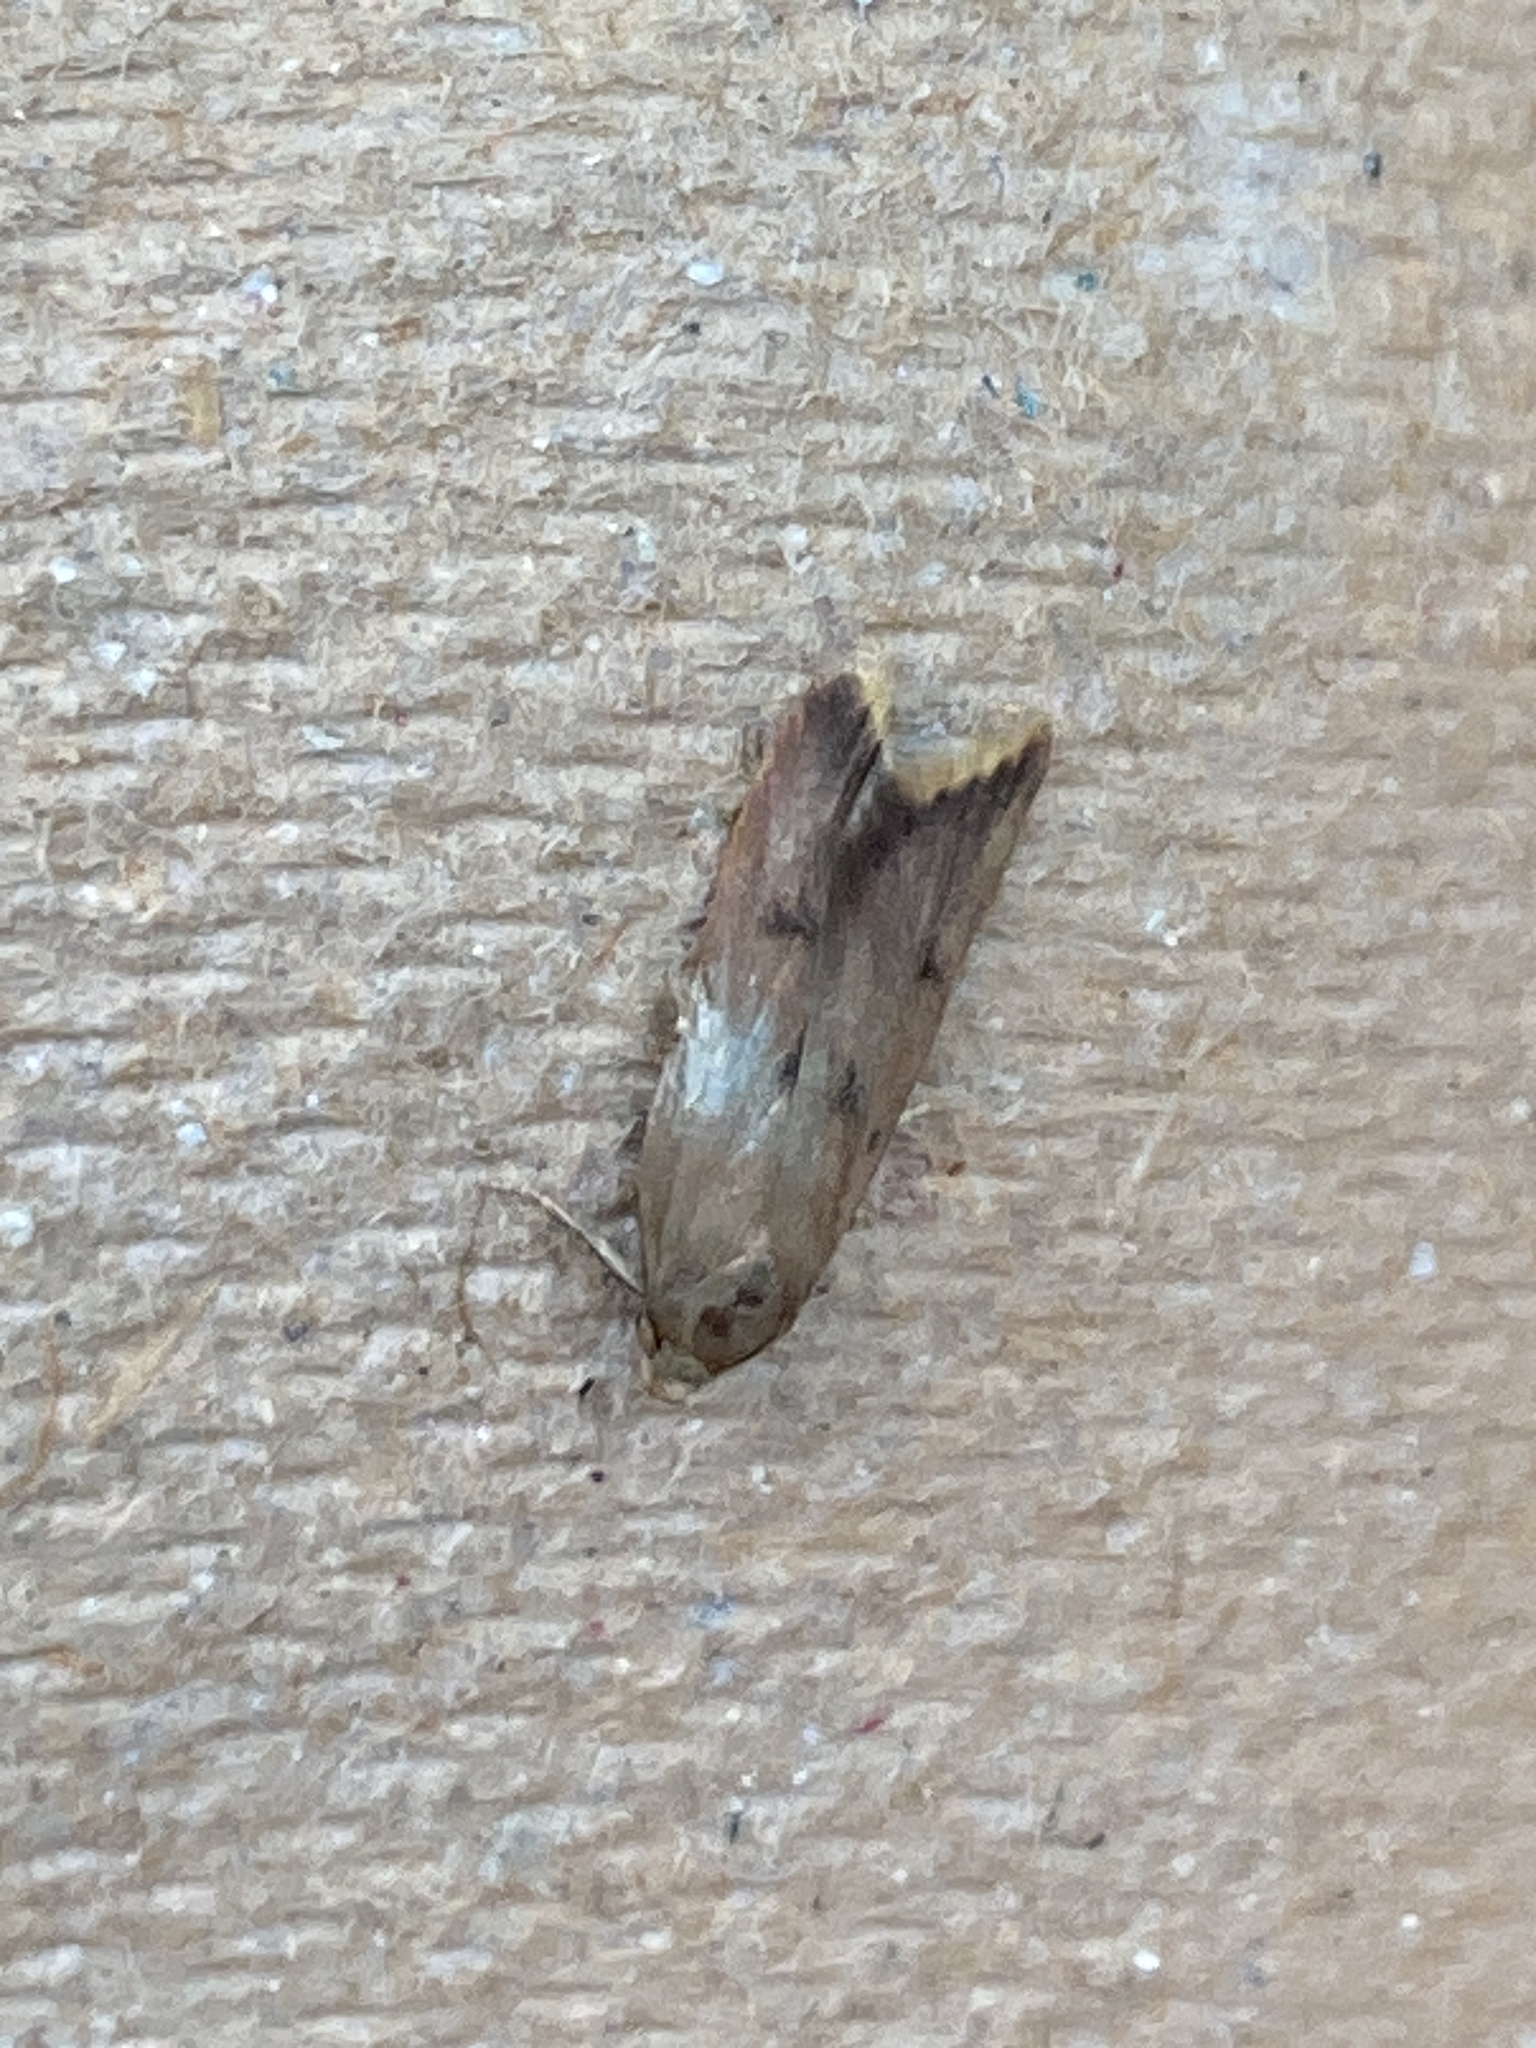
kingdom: Animalia
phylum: Arthropoda
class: Insecta
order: Lepidoptera
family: Oecophoridae
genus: Tachystola
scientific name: Tachystola acroxantha
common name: Ruddy streak
